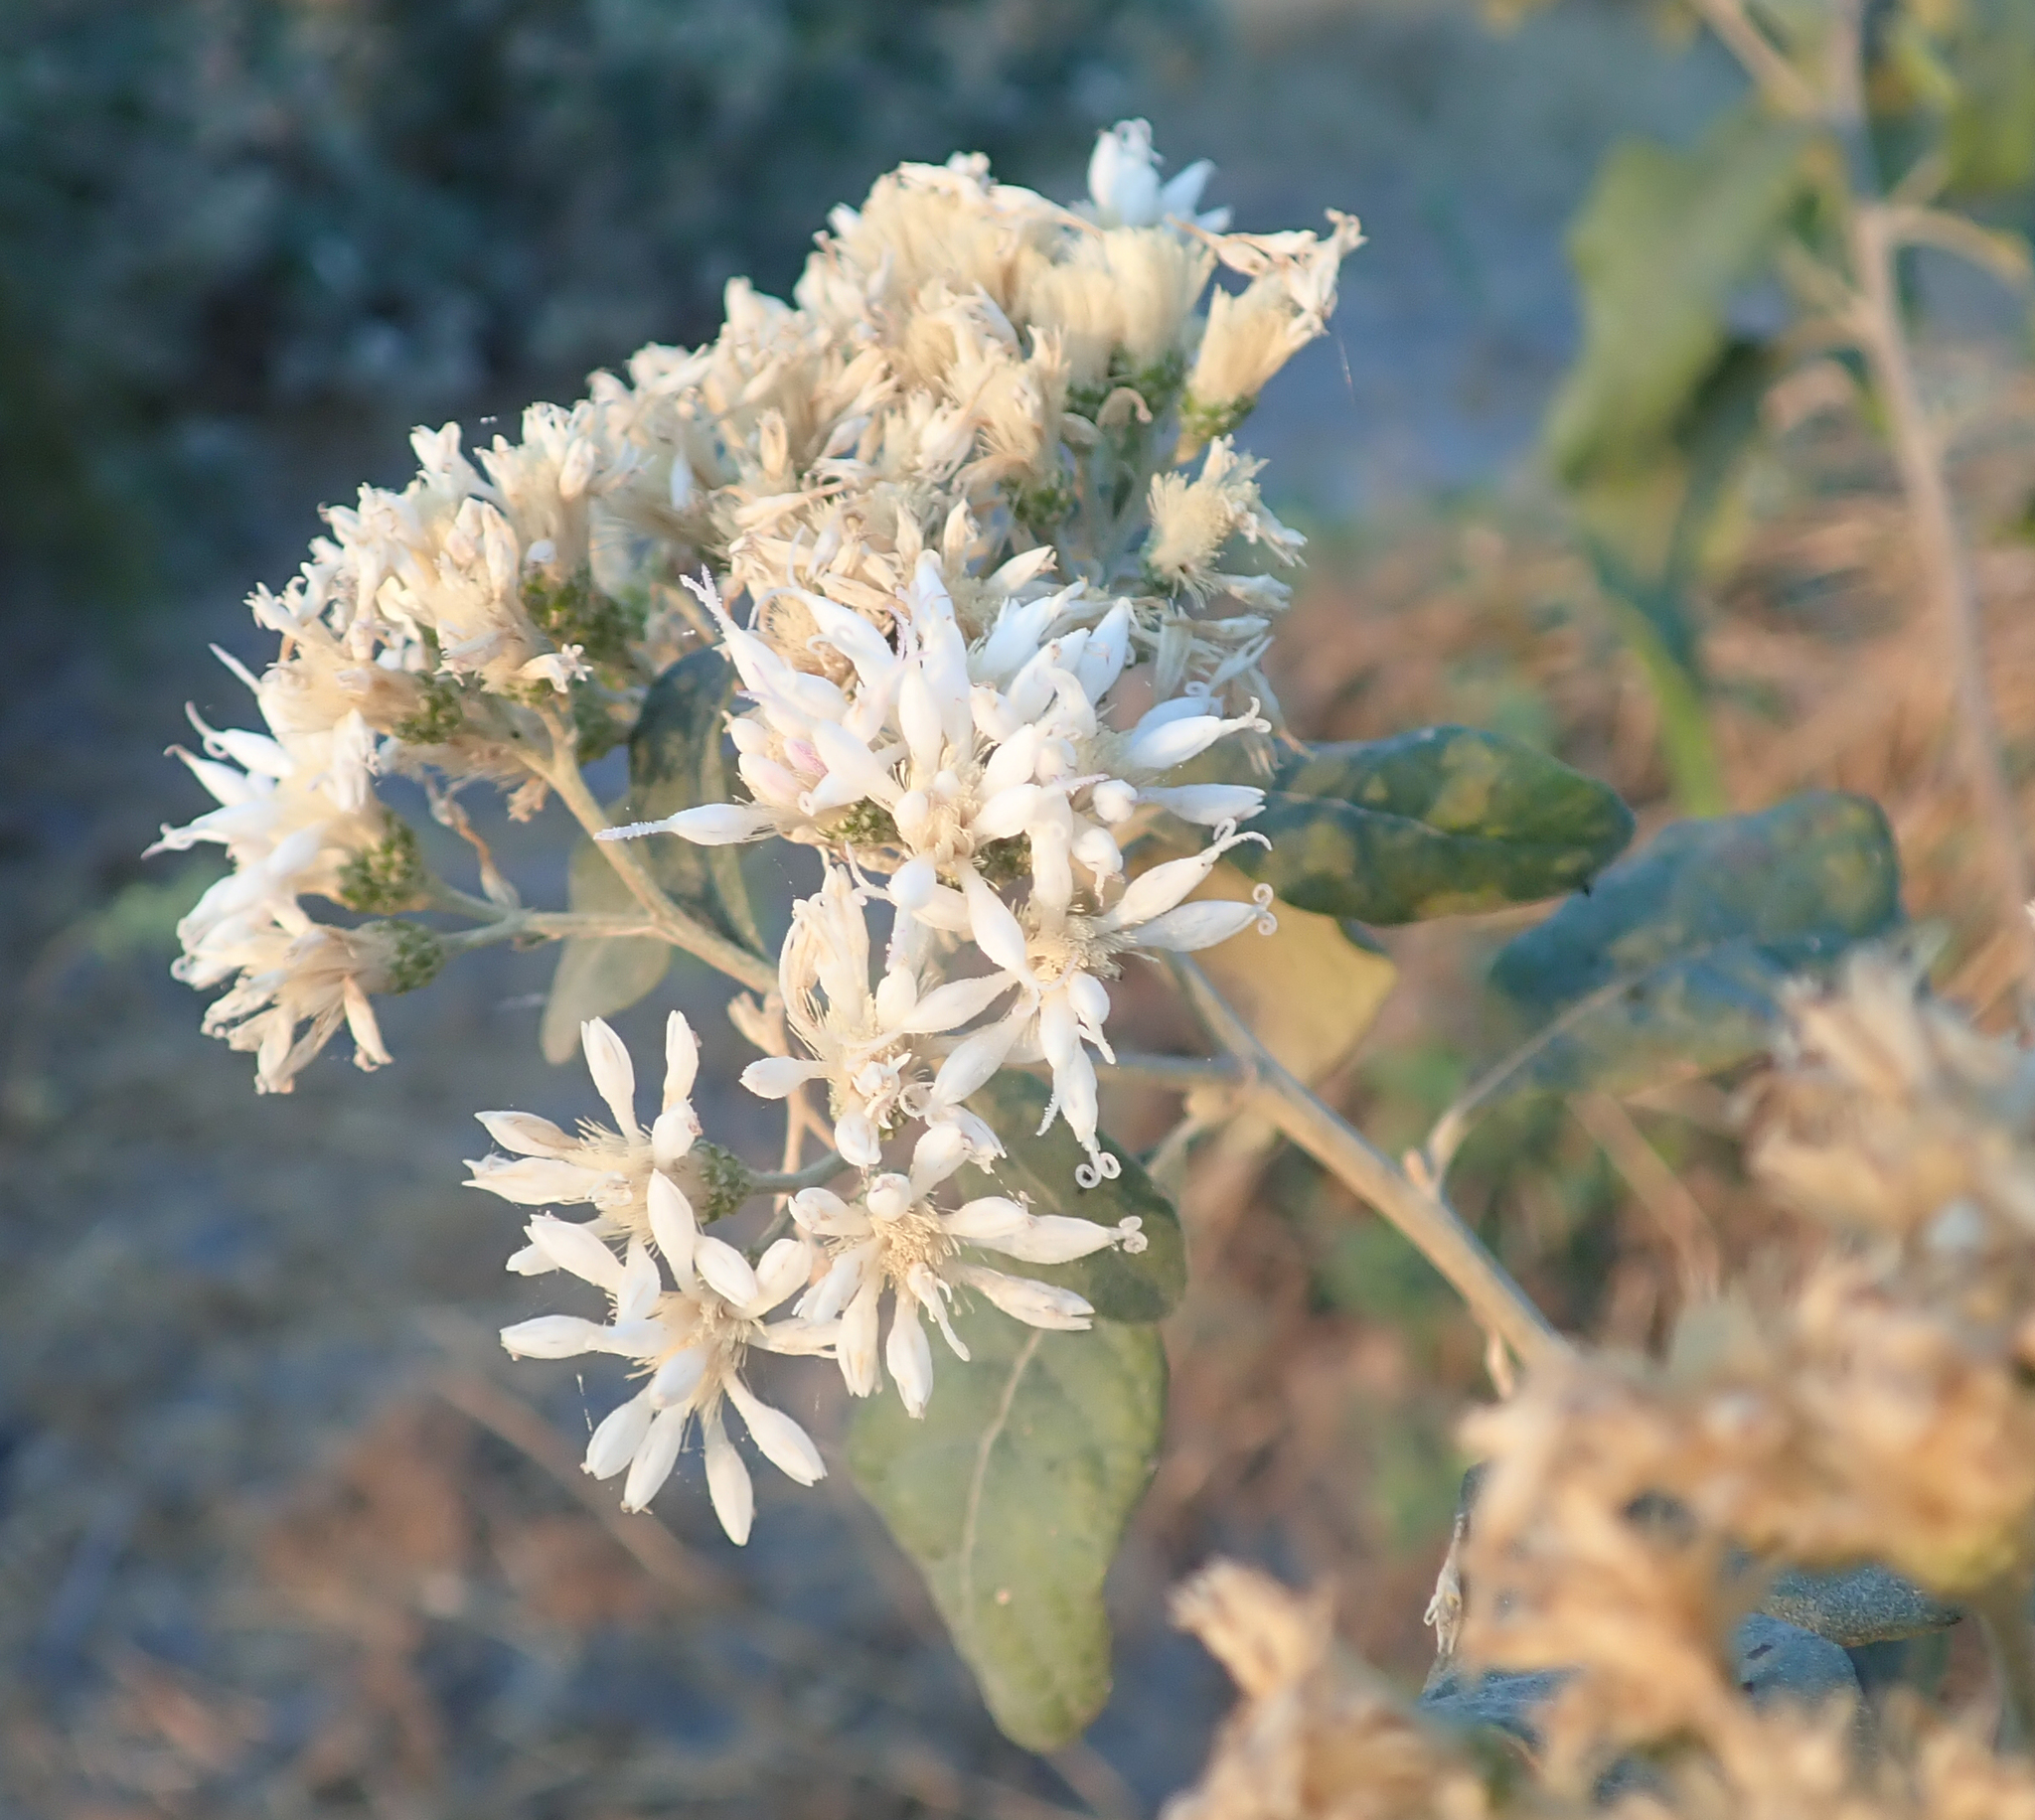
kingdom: Plantae
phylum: Tracheophyta
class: Magnoliopsida
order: Asterales
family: Asteraceae
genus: Gymnanthemum
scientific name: Gymnanthemum amygdalinum
